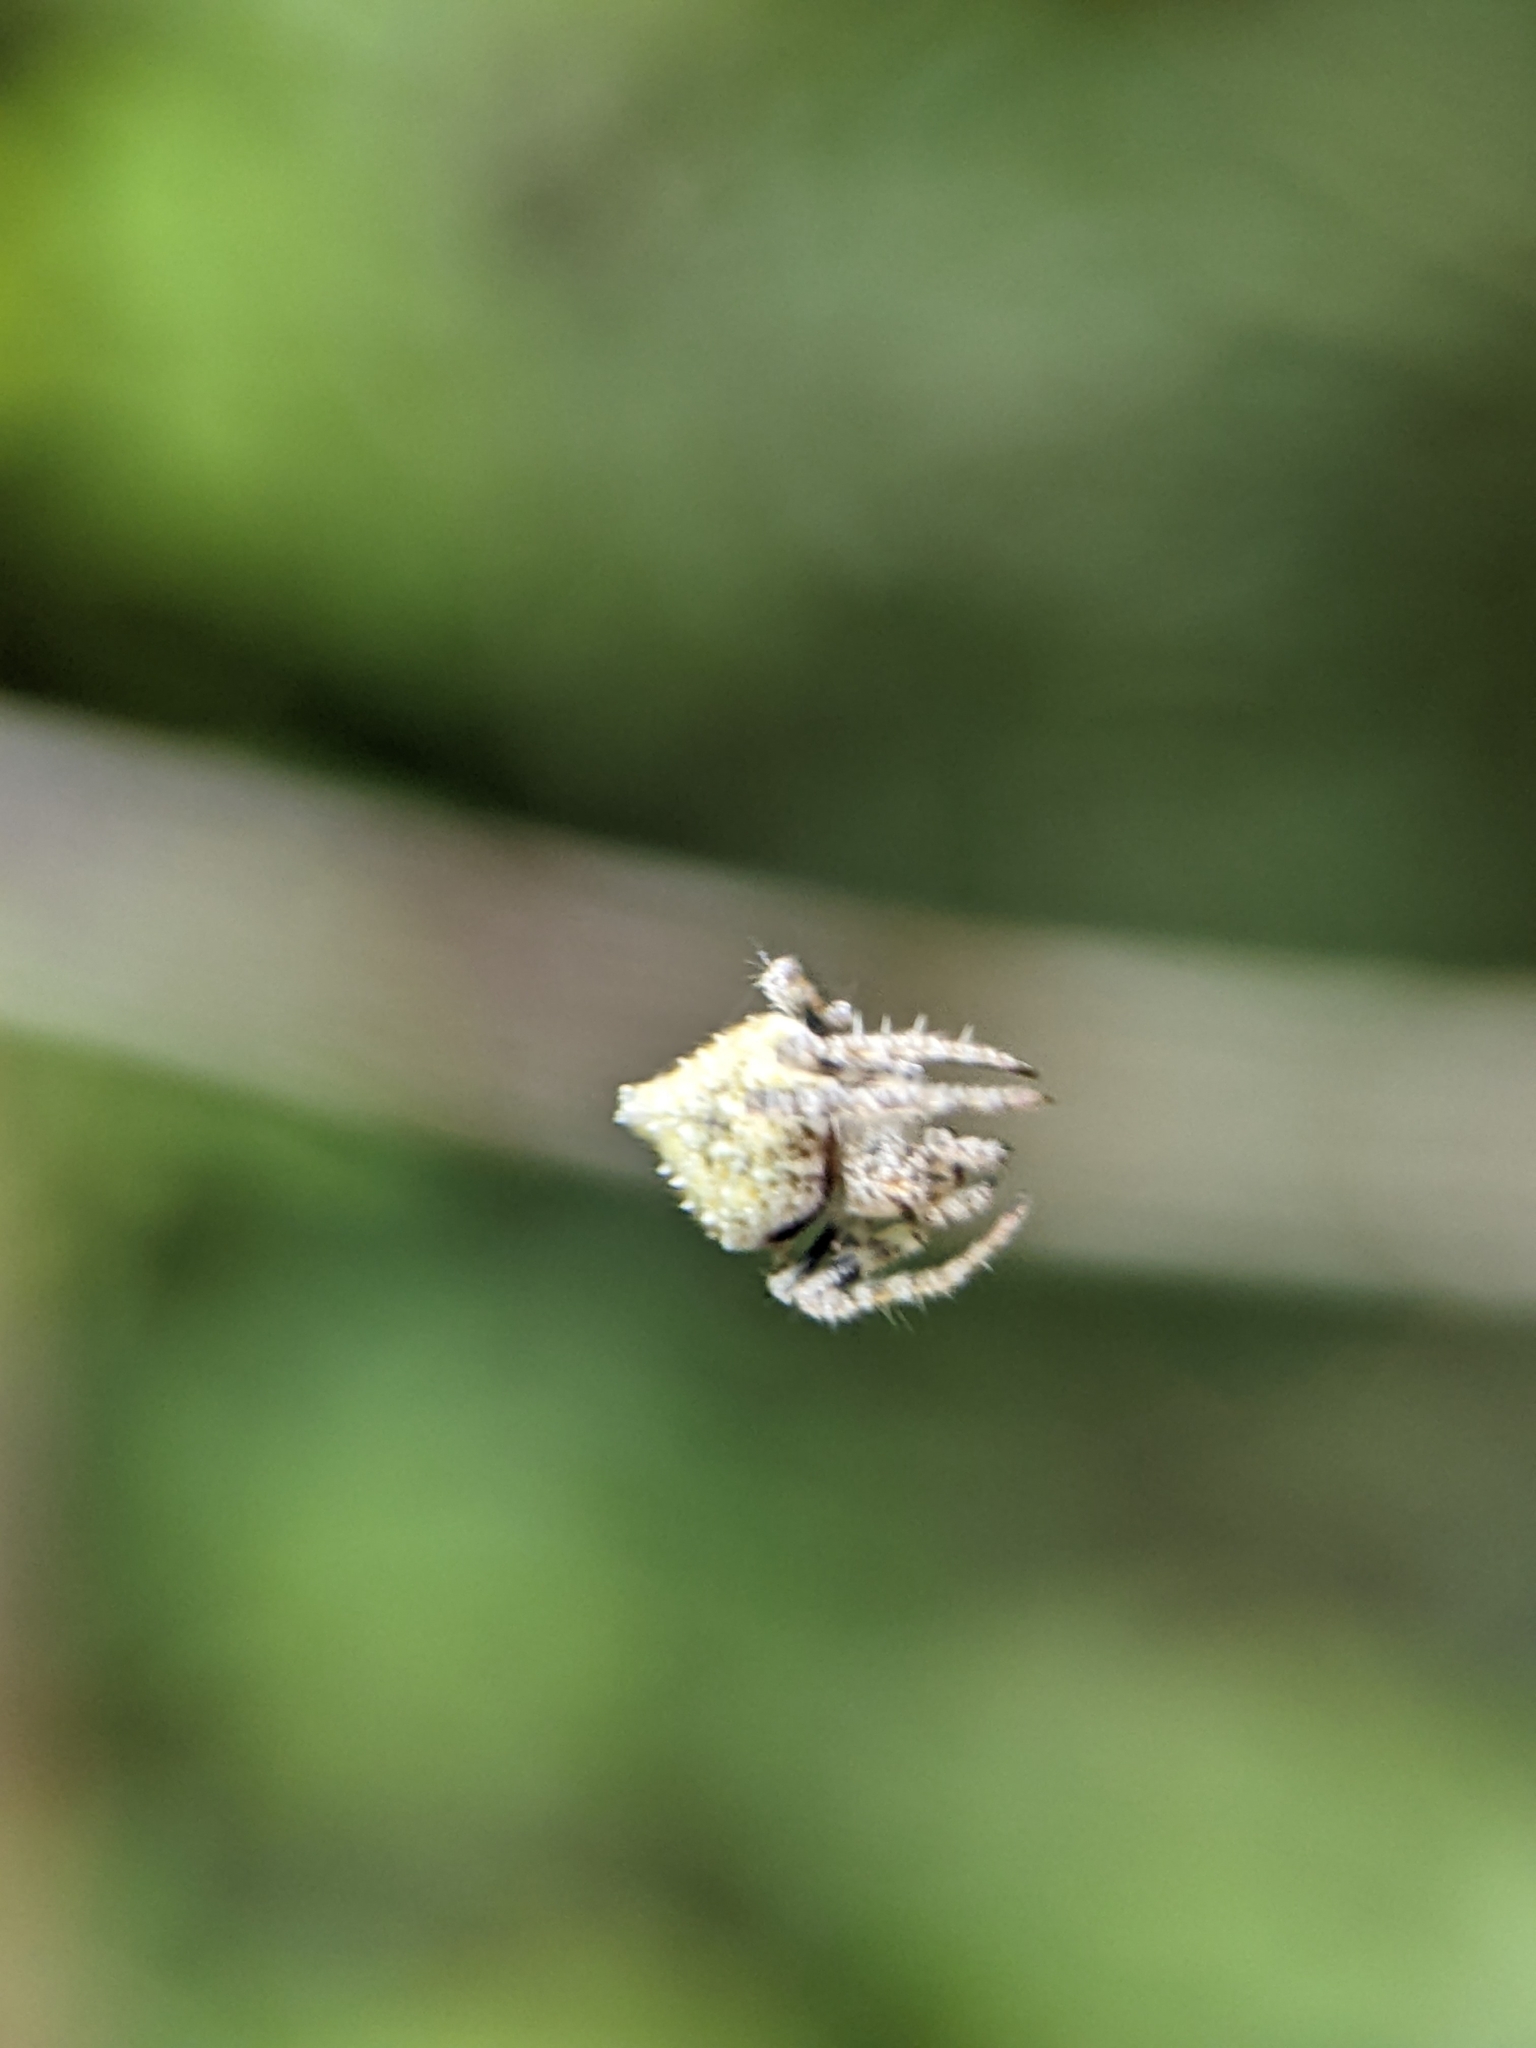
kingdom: Animalia
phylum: Arthropoda
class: Arachnida
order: Araneae
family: Araneidae
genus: Eriovixia
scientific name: Eriovixia laglaizei
